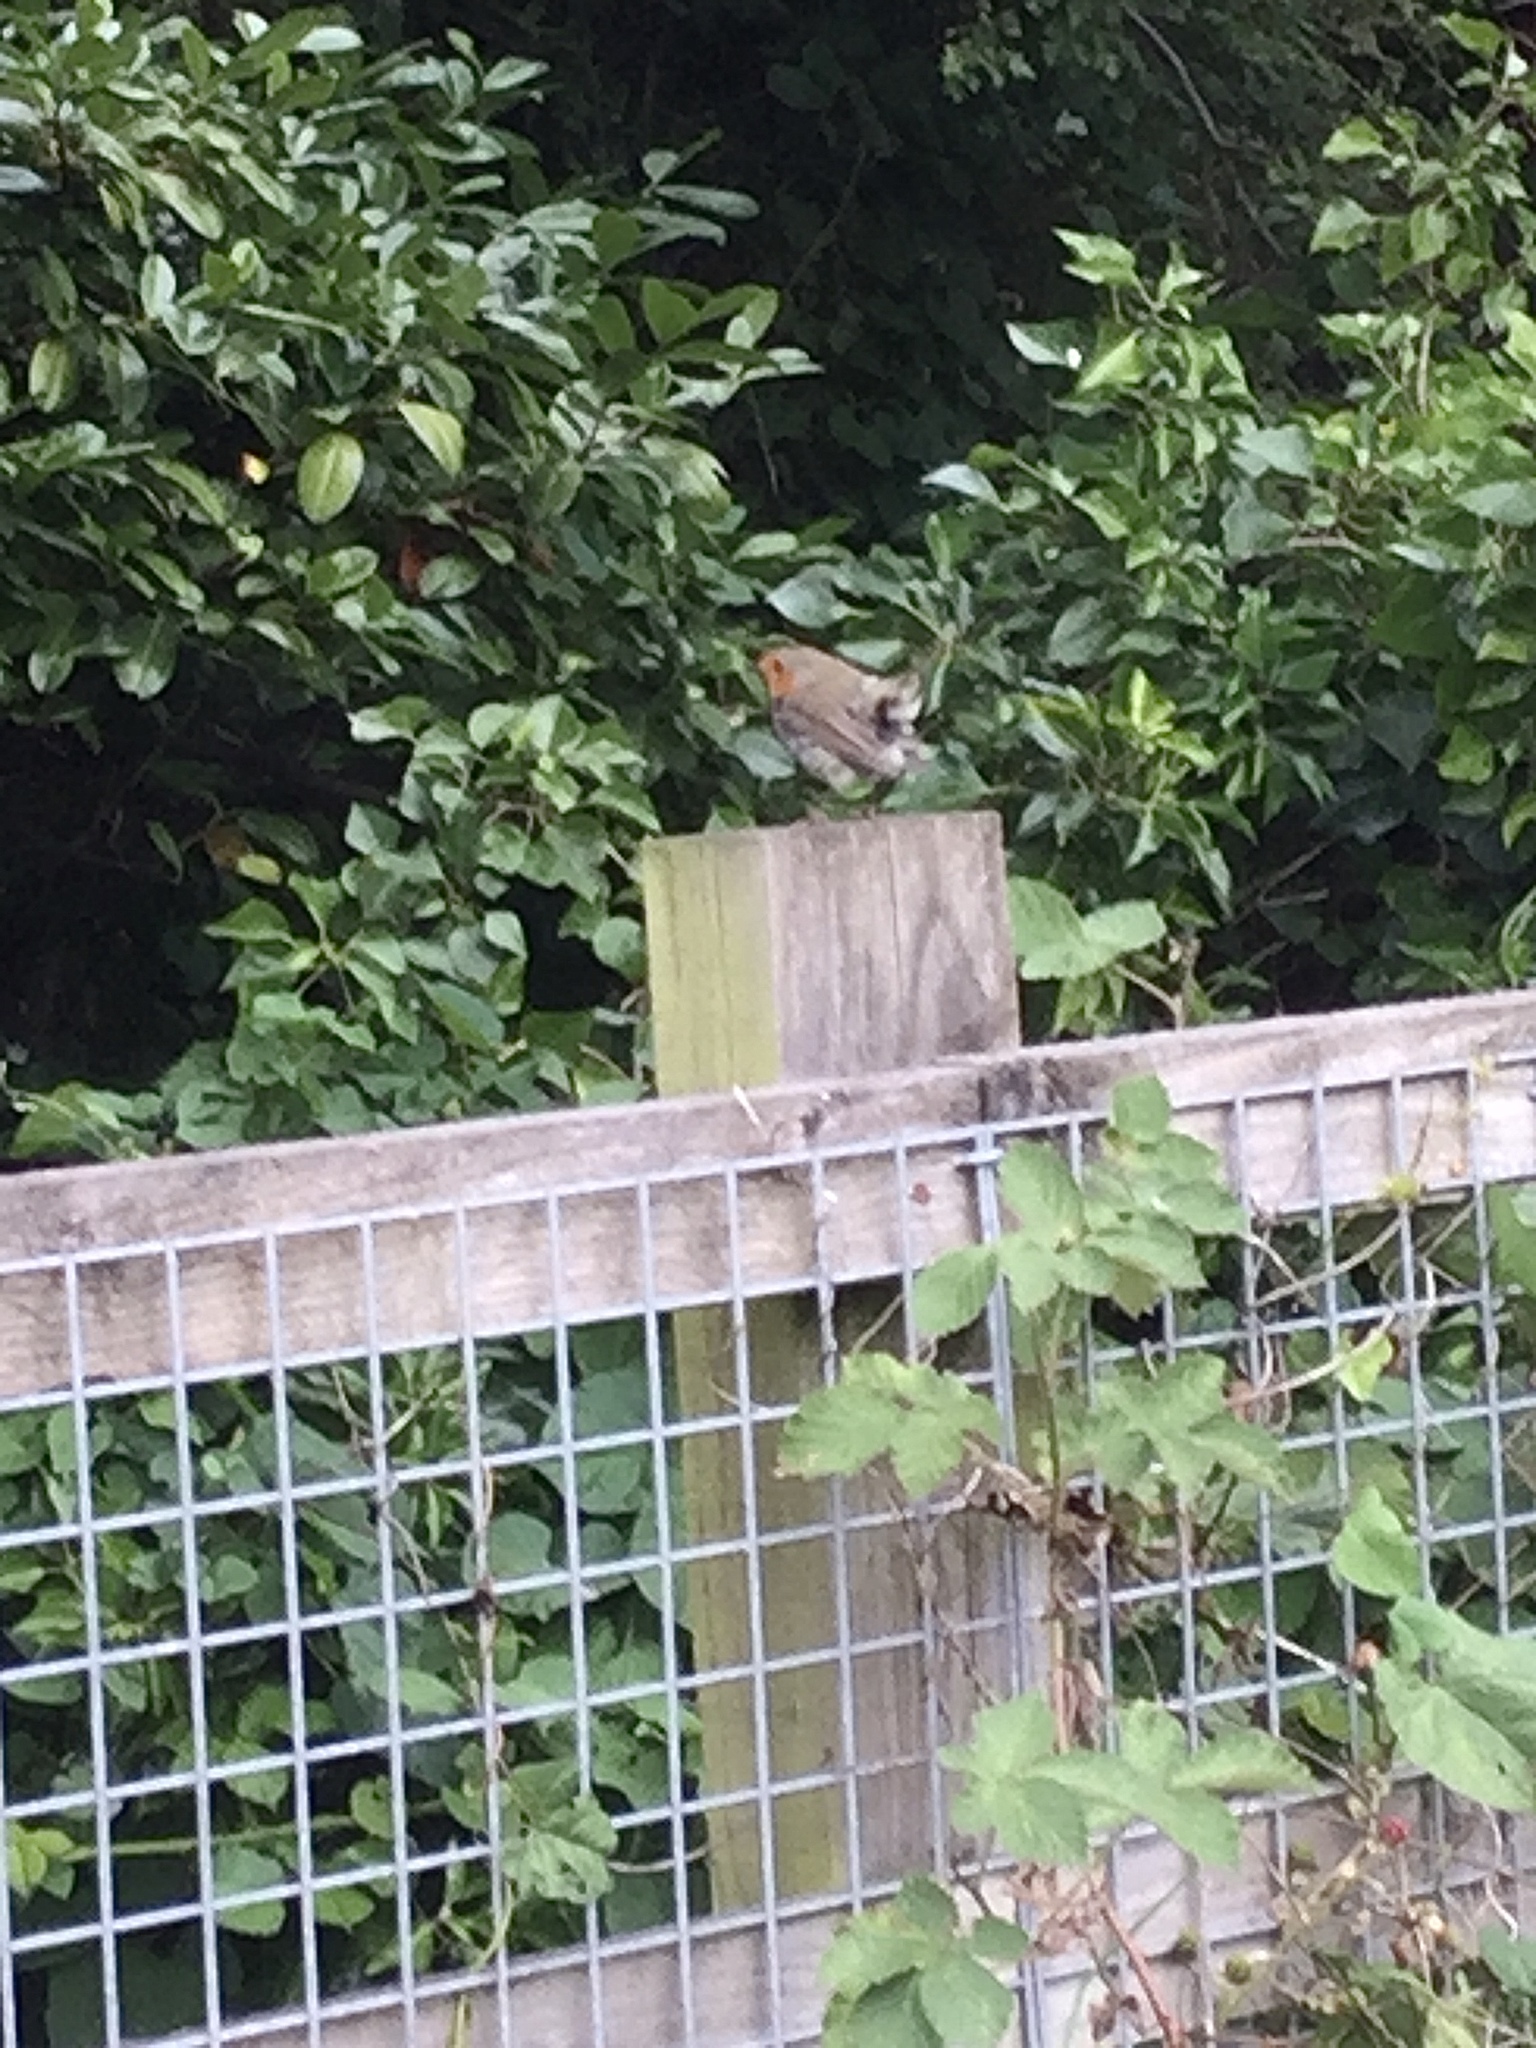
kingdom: Animalia
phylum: Chordata
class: Aves
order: Passeriformes
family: Muscicapidae
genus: Erithacus
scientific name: Erithacus rubecula
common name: European robin
